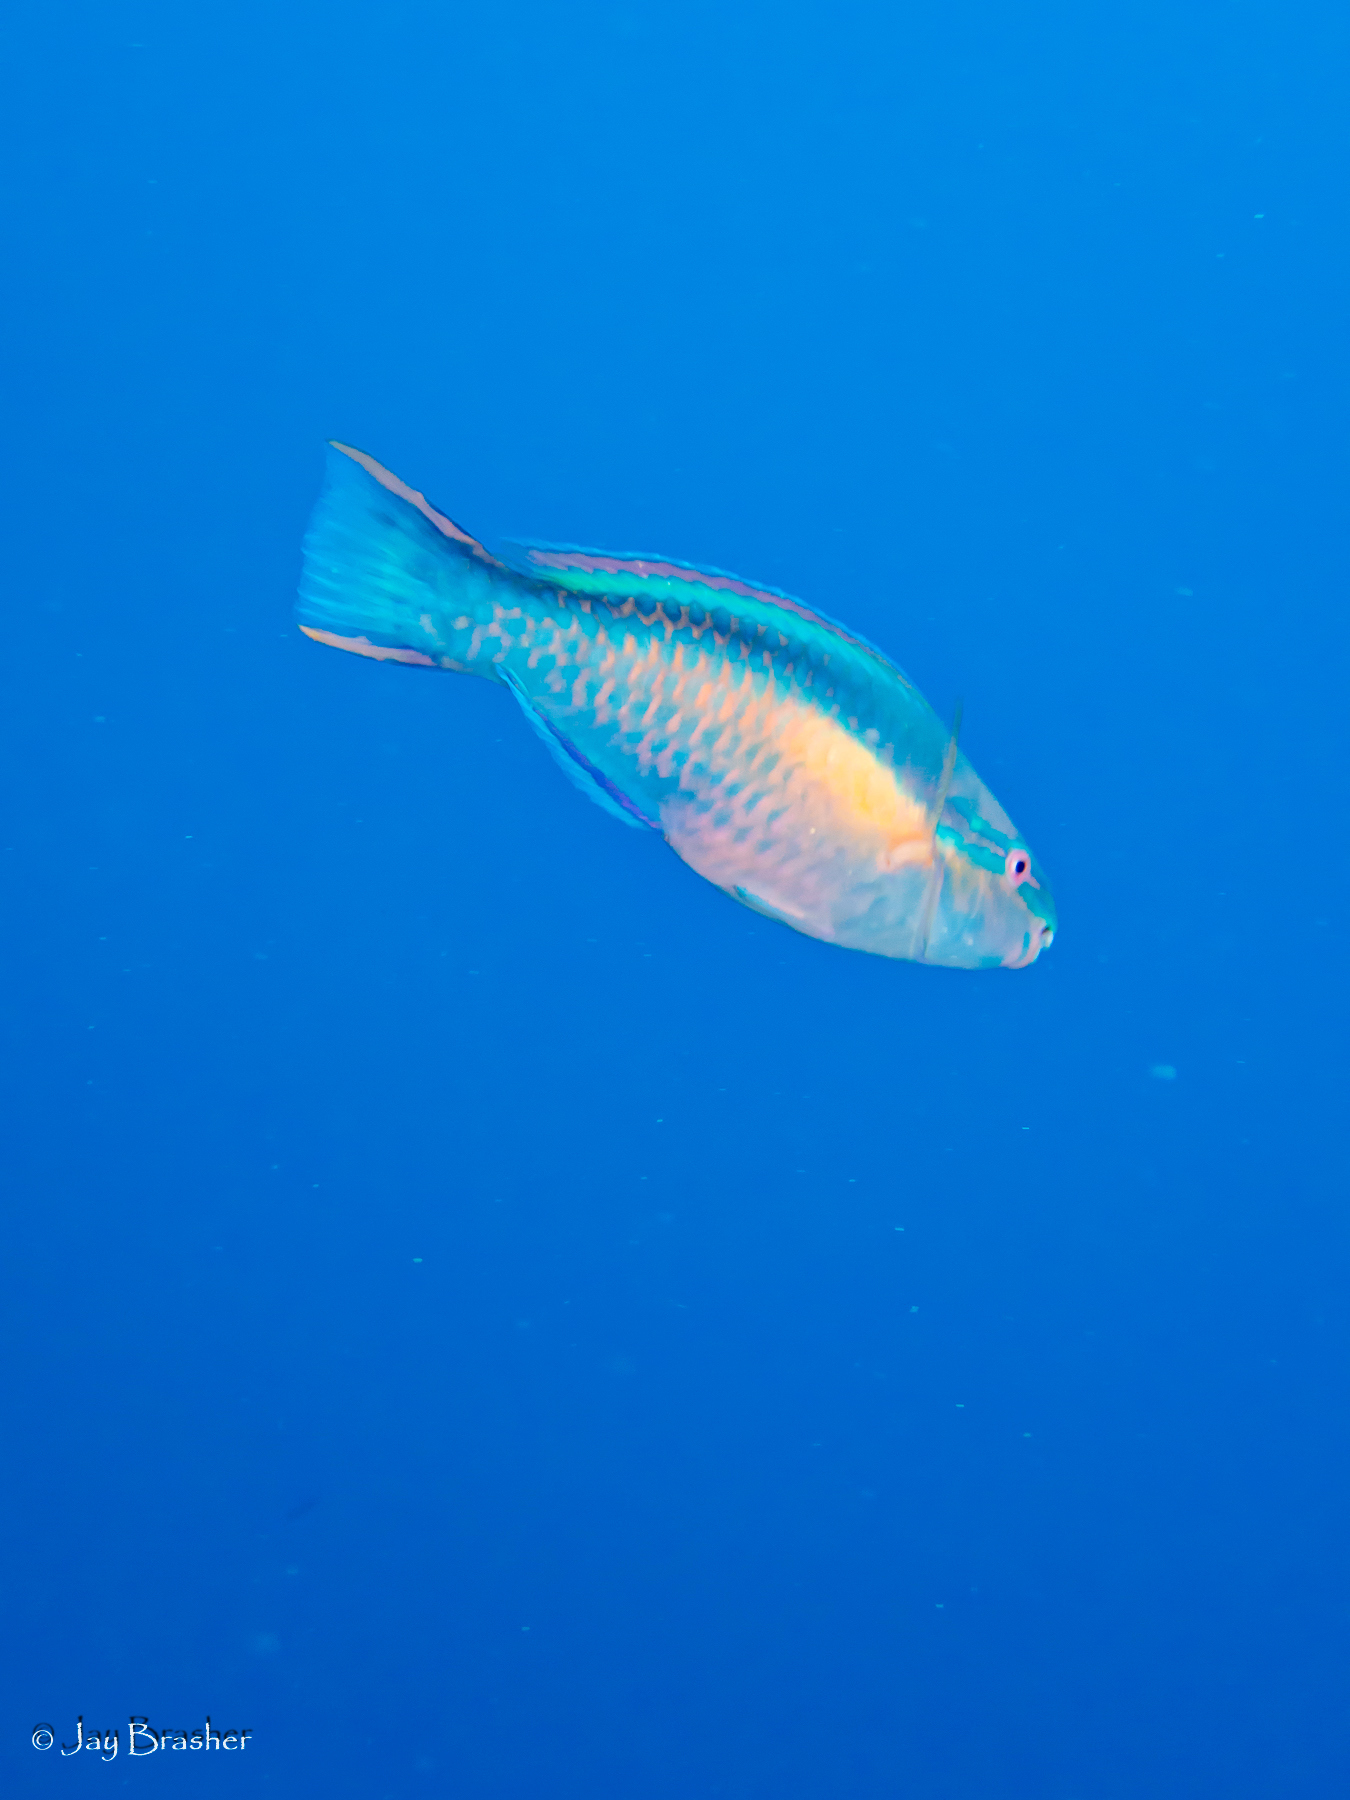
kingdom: Animalia
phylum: Chordata
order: Perciformes
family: Scaridae
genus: Scarus
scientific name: Scarus taeniopterus
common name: Princess parrotfish
